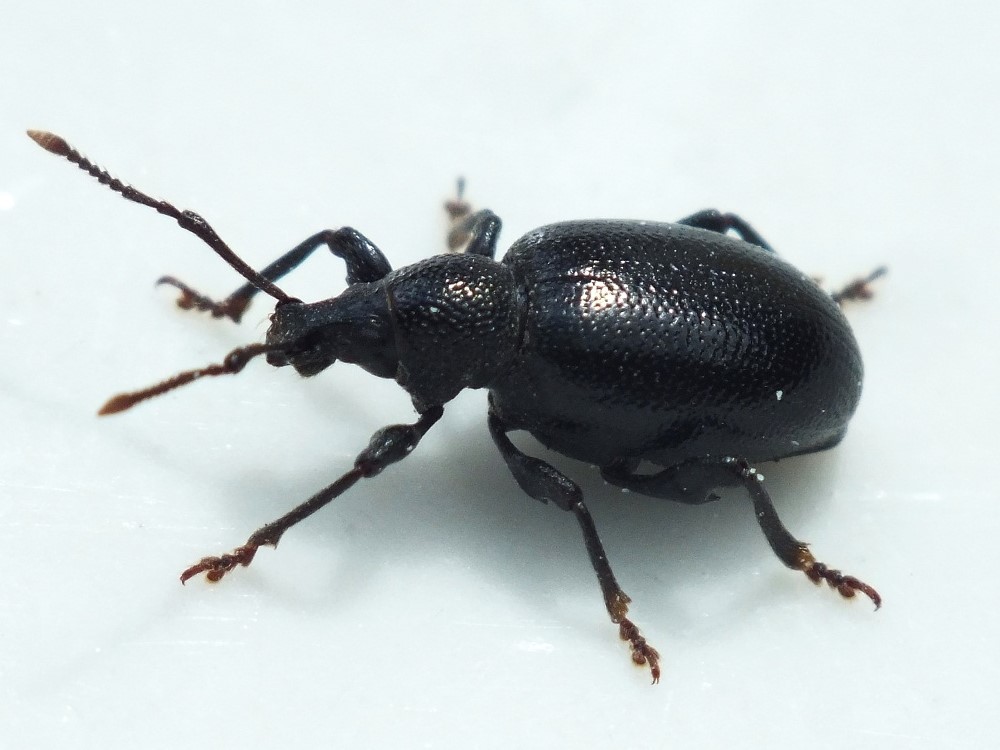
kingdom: Animalia
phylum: Arthropoda
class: Insecta
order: Coleoptera
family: Curculionidae
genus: Otiorhynchus
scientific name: Otiorhynchus asphaltinus
